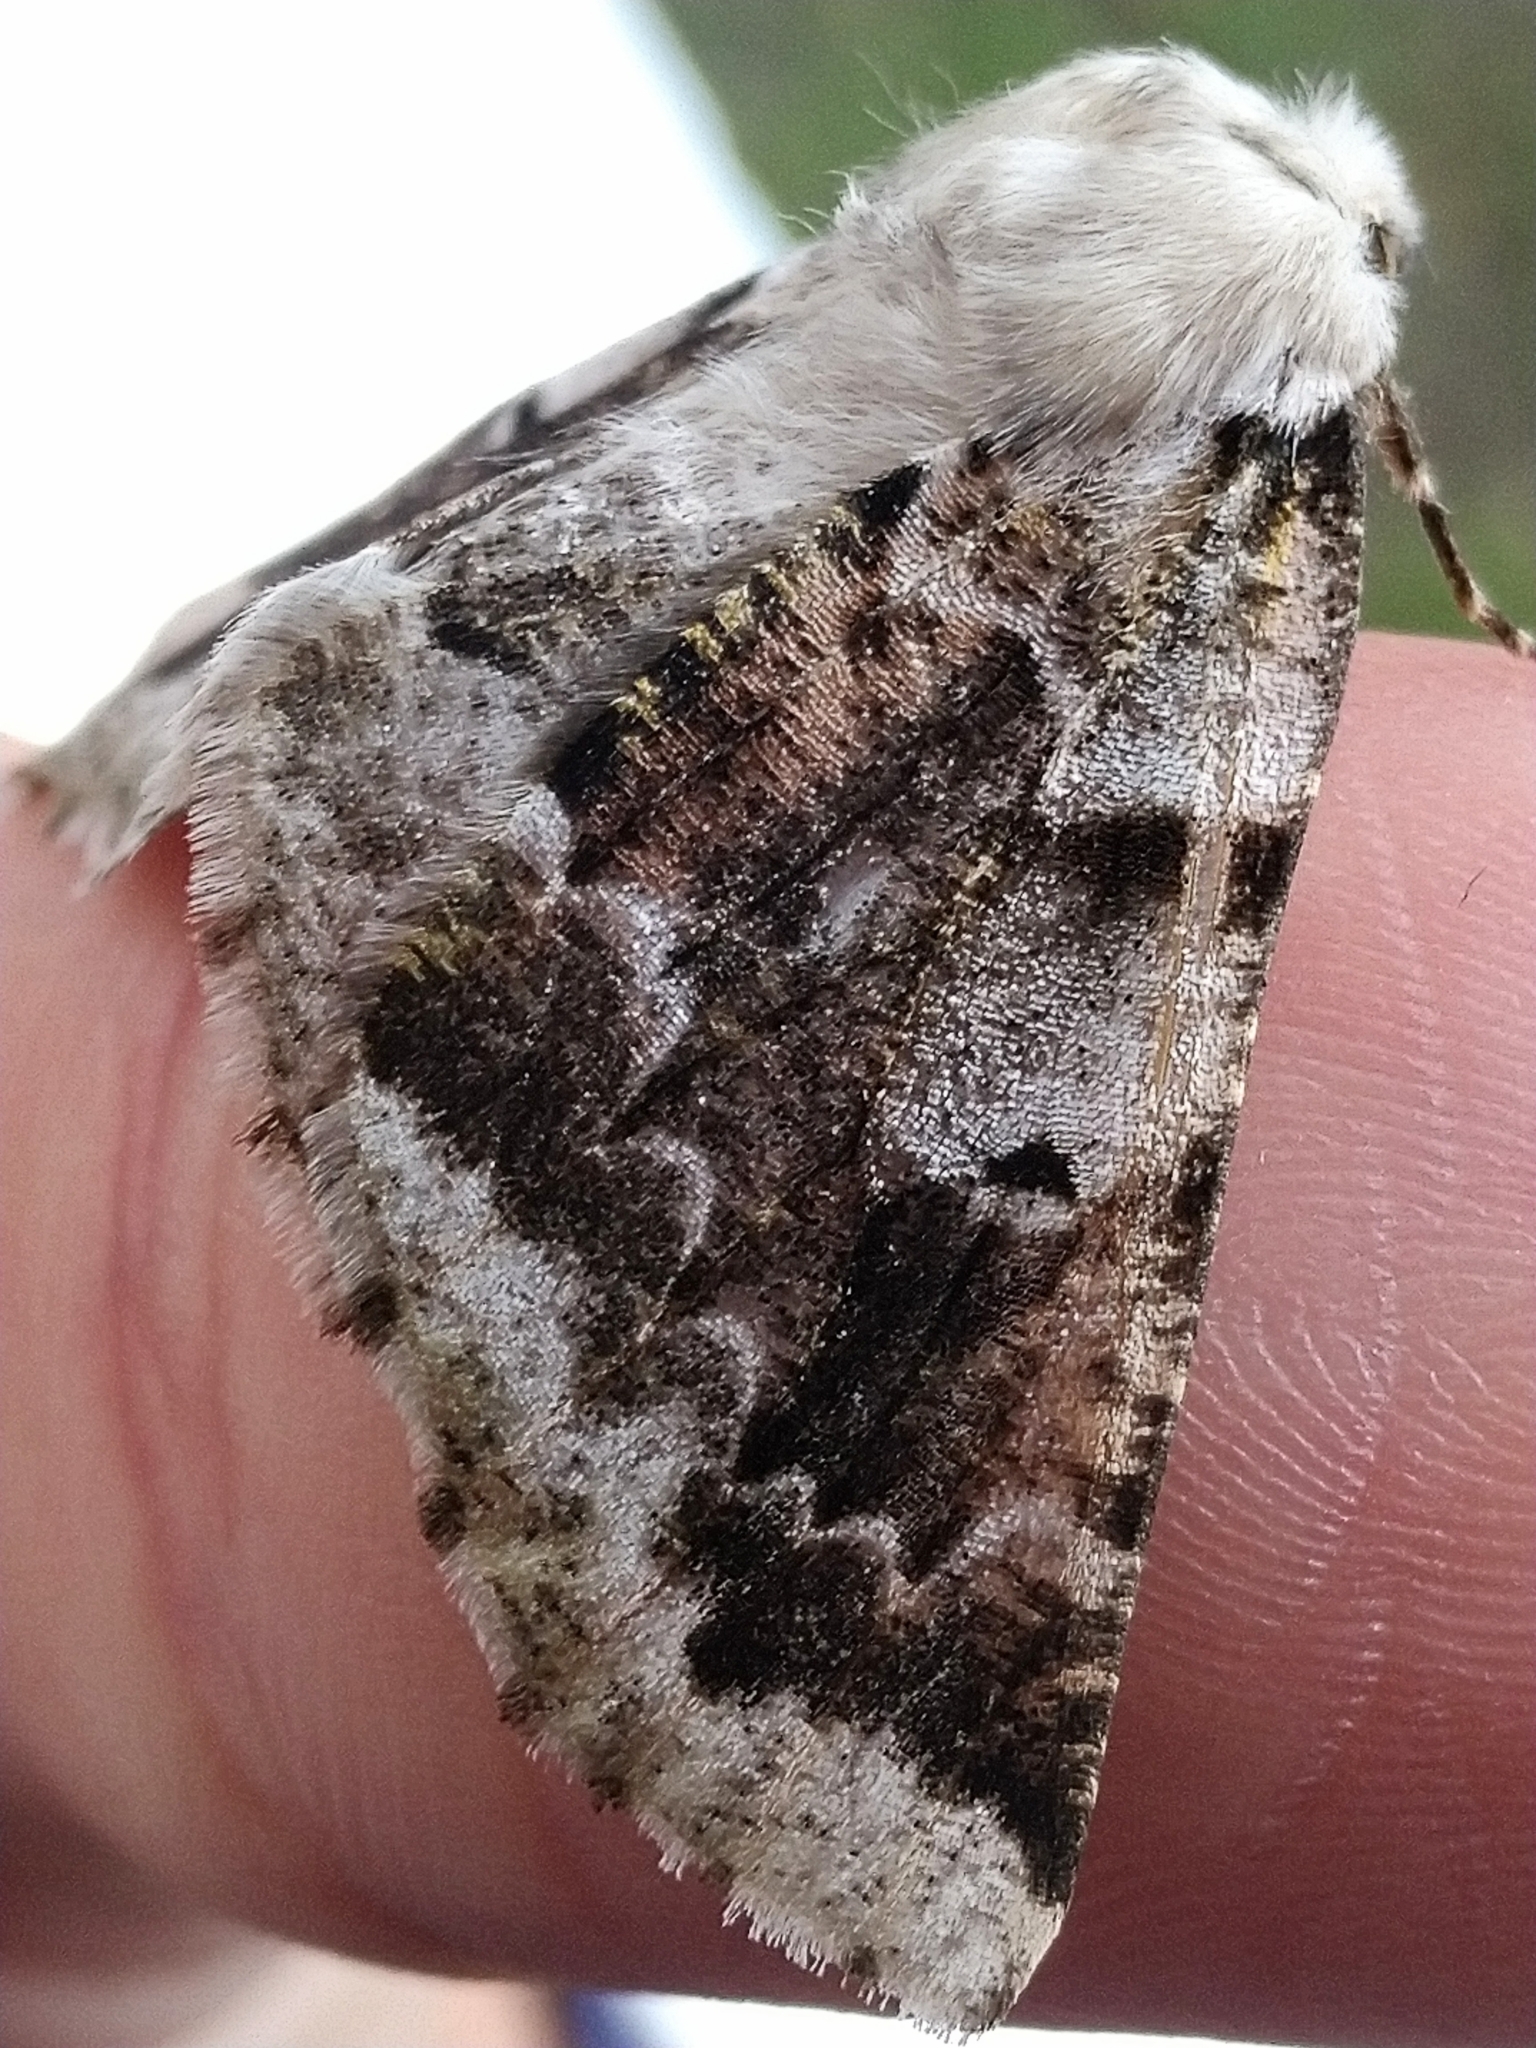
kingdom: Animalia
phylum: Arthropoda
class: Insecta
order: Lepidoptera
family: Geometridae
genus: Acronyctodes
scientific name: Acronyctodes mexicanaria
